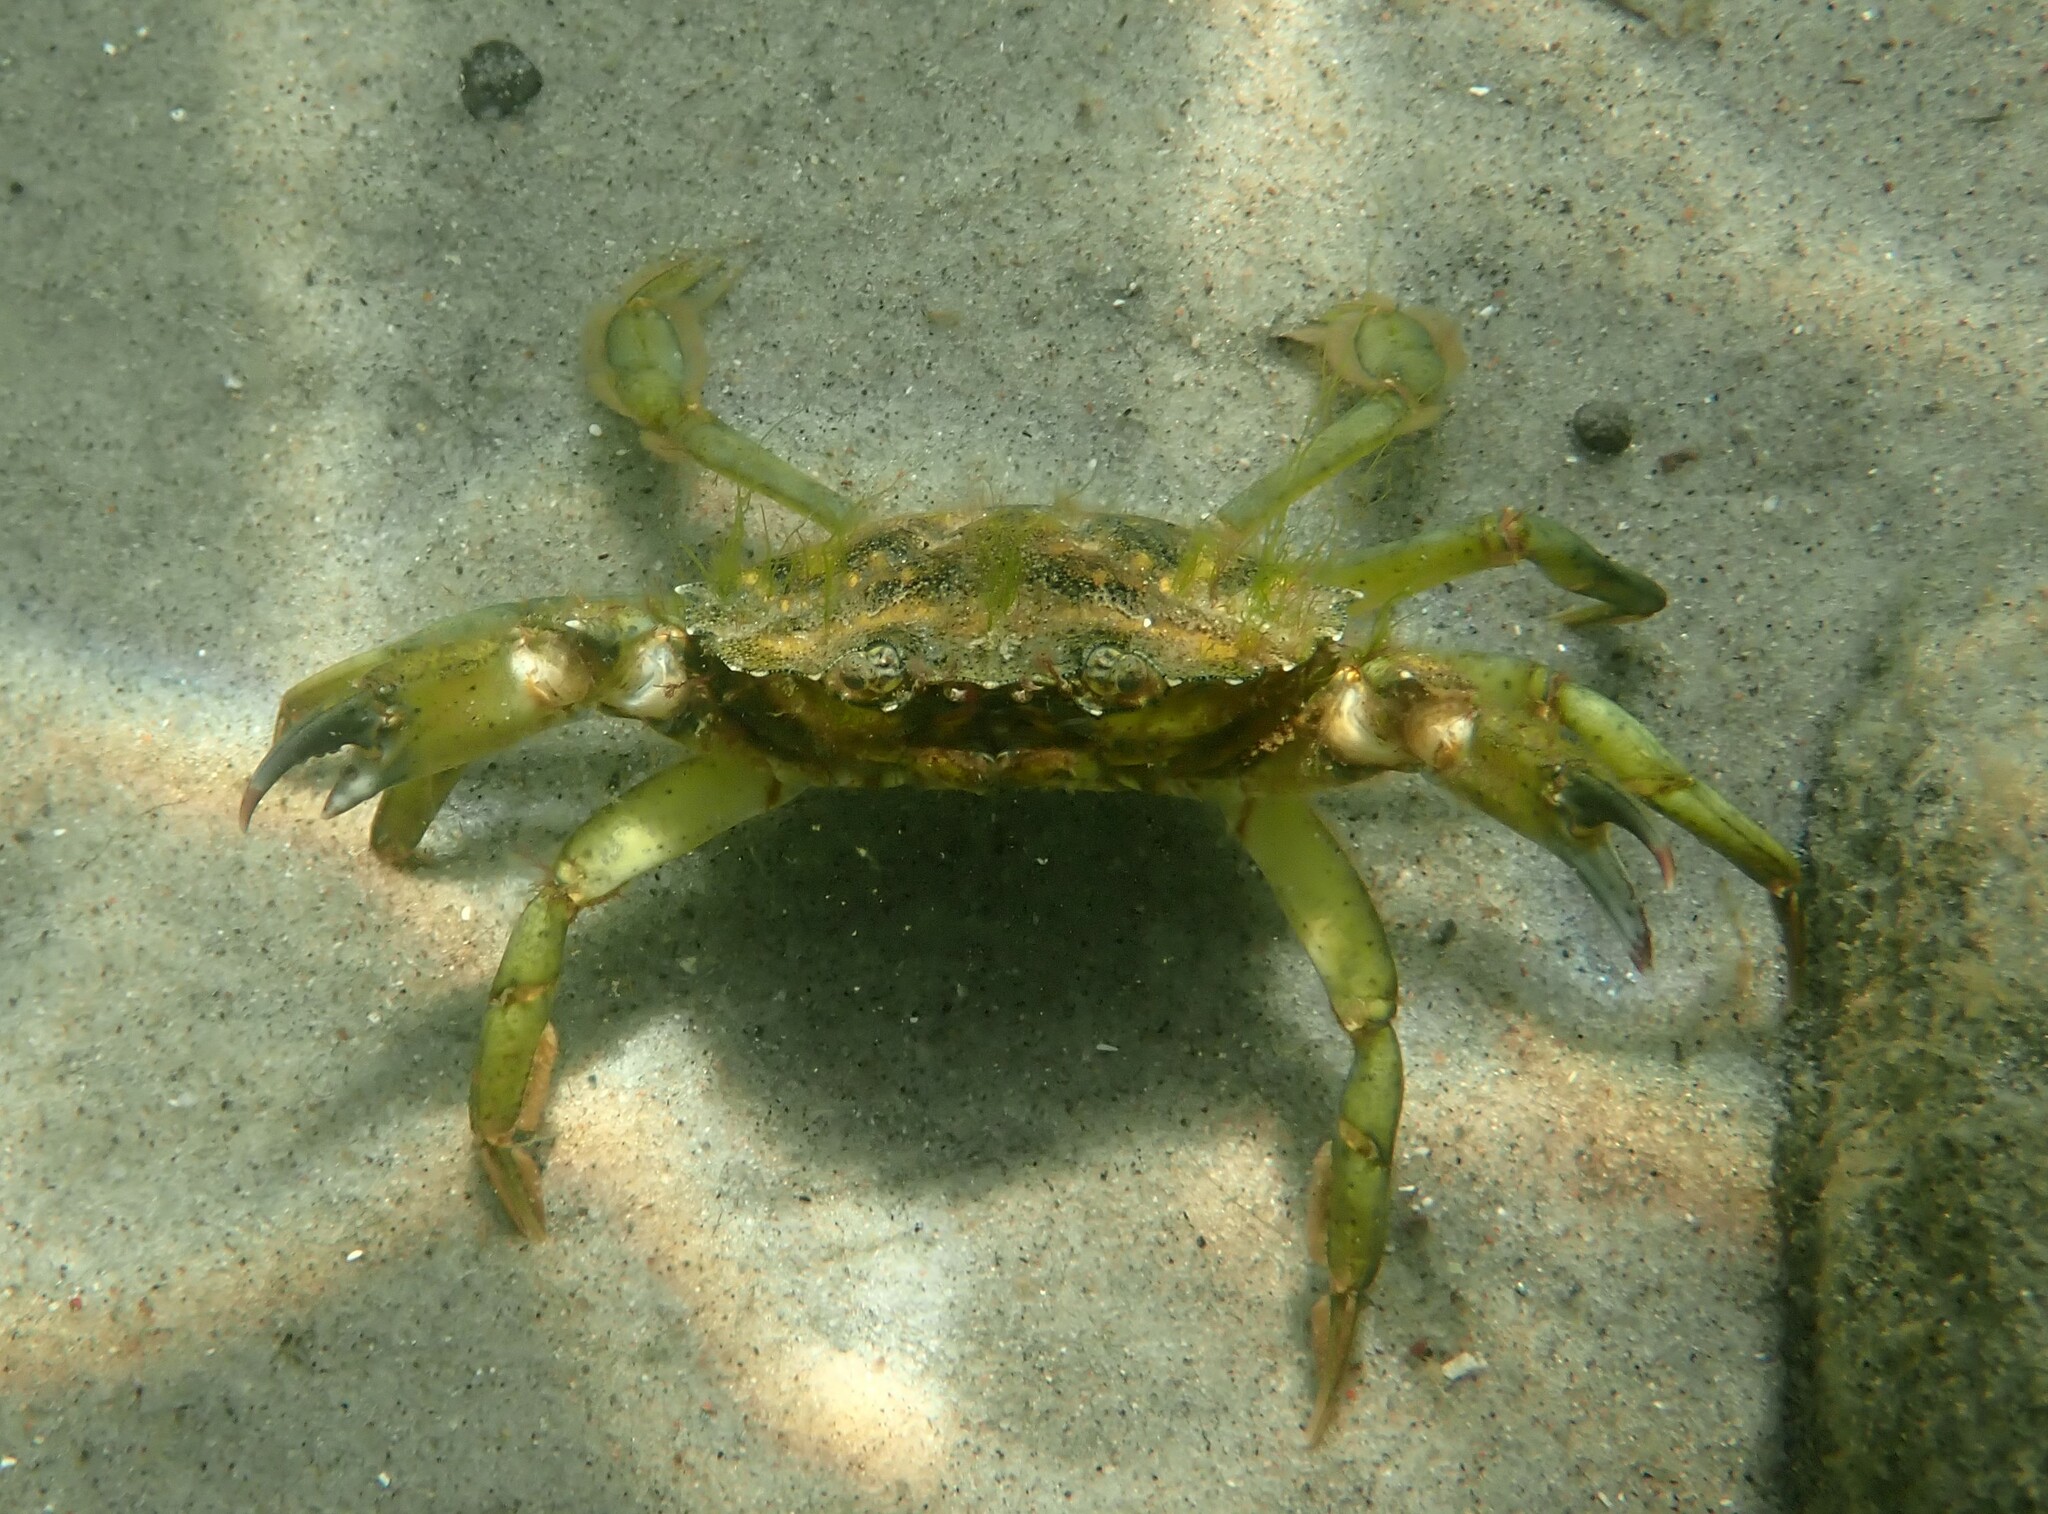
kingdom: Animalia
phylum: Arthropoda
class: Malacostraca
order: Decapoda
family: Carcinidae
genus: Carcinus
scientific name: Carcinus maenas
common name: European green crab
